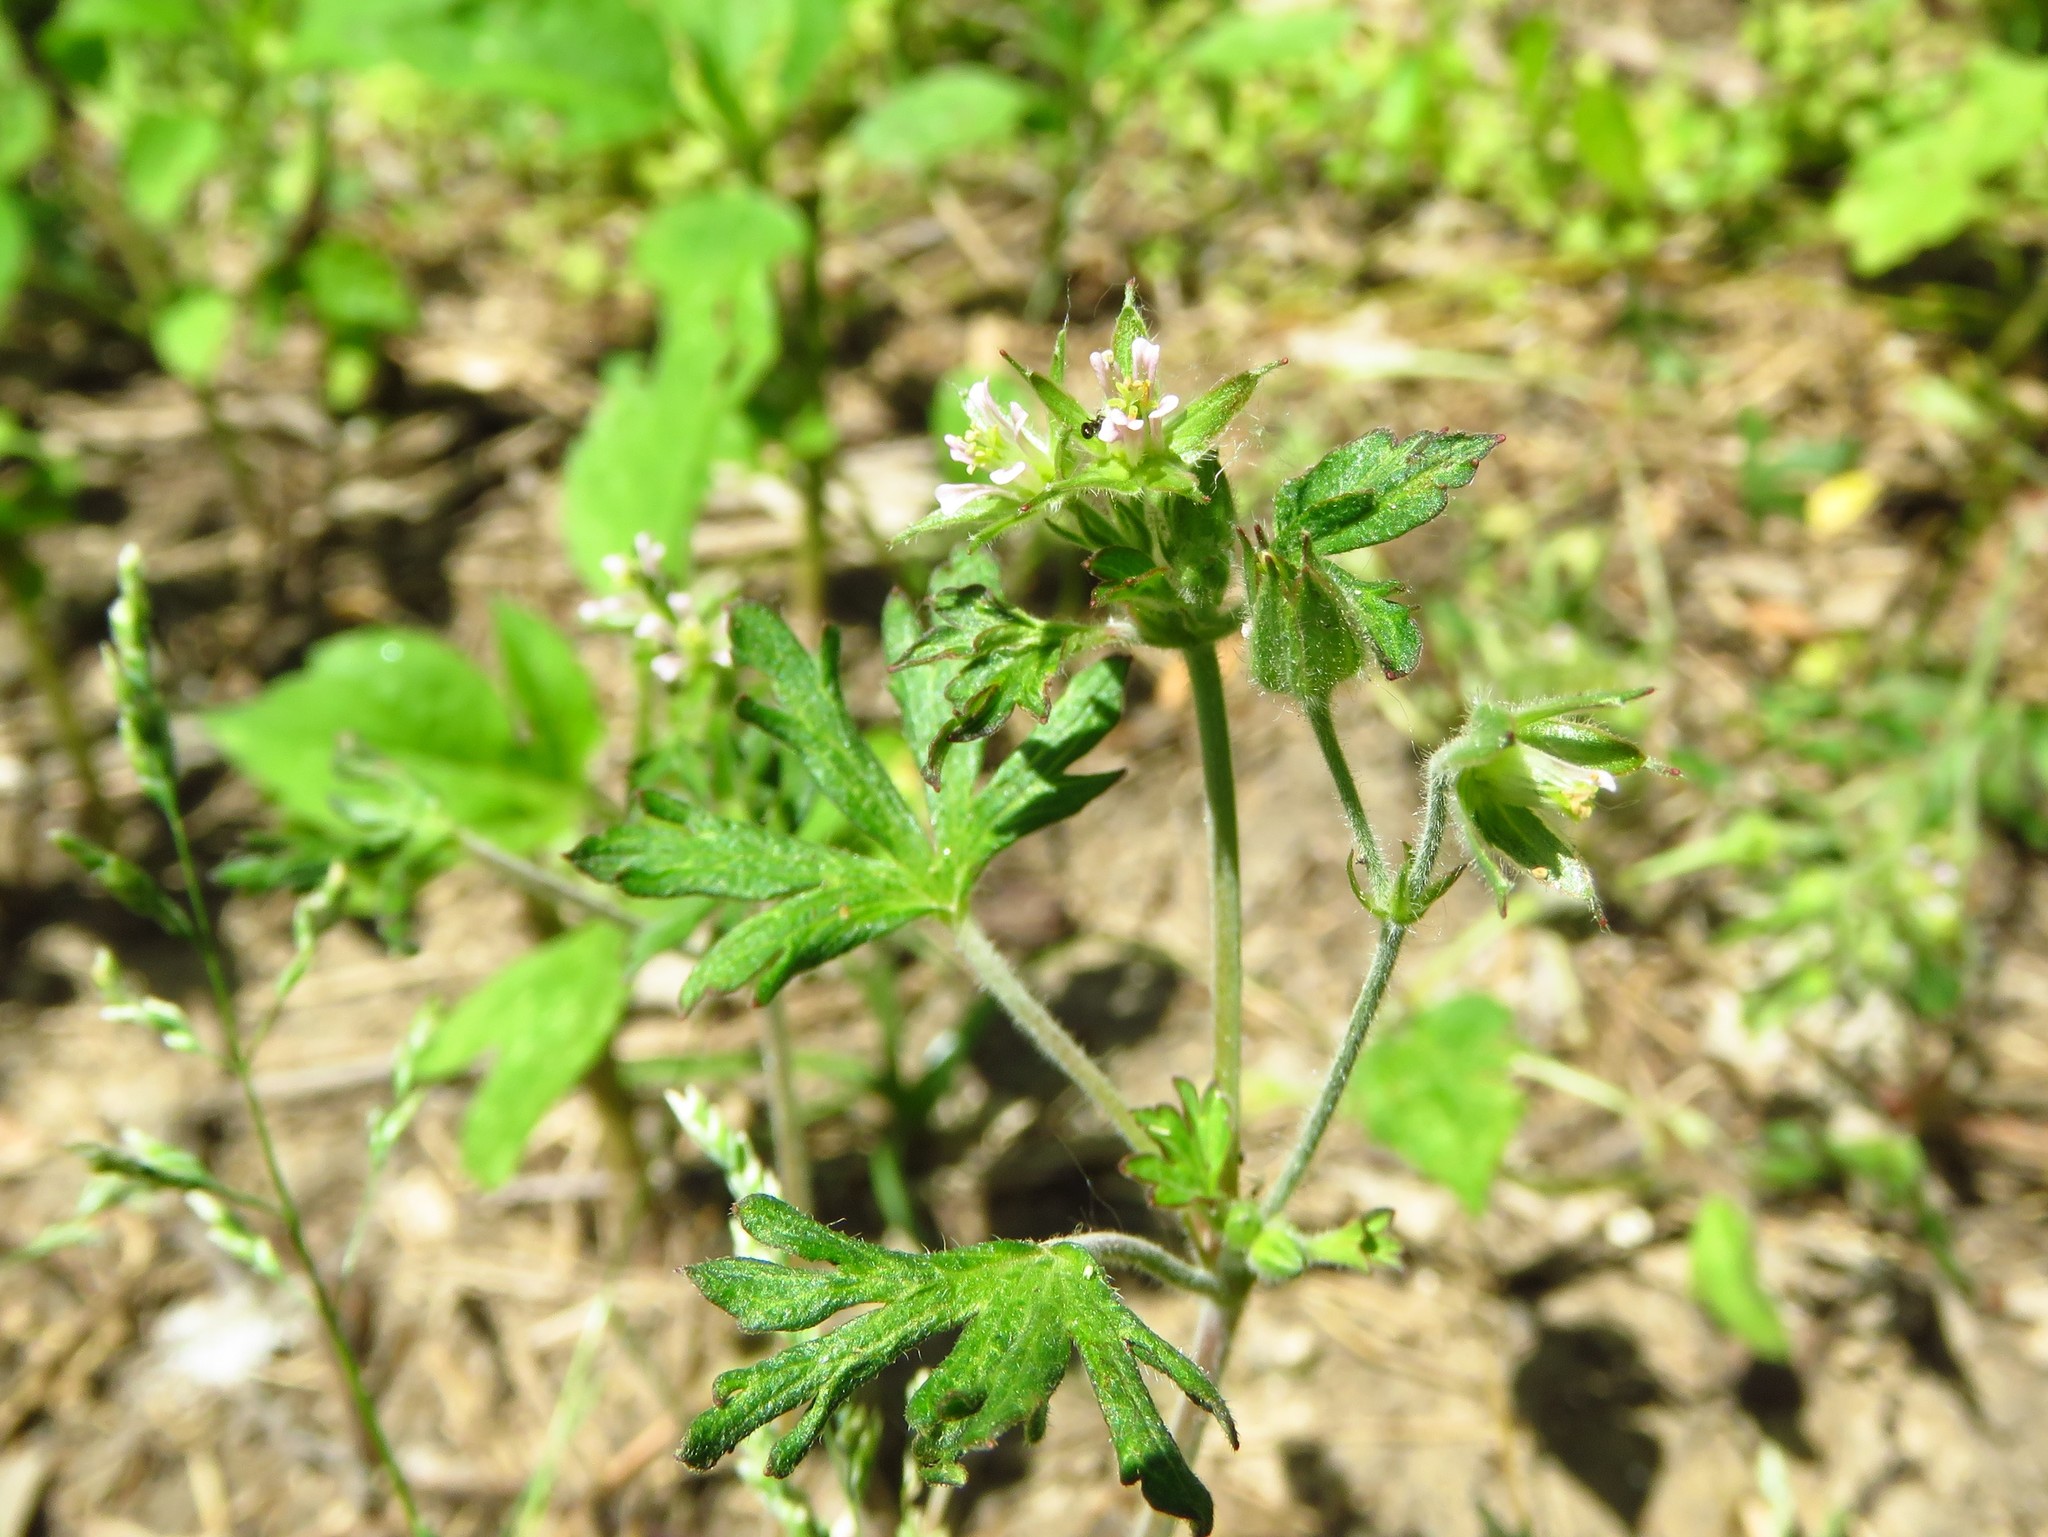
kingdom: Plantae
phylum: Tracheophyta
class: Magnoliopsida
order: Geraniales
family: Geraniaceae
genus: Geranium
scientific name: Geranium carolinianum
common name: Carolina crane's-bill
